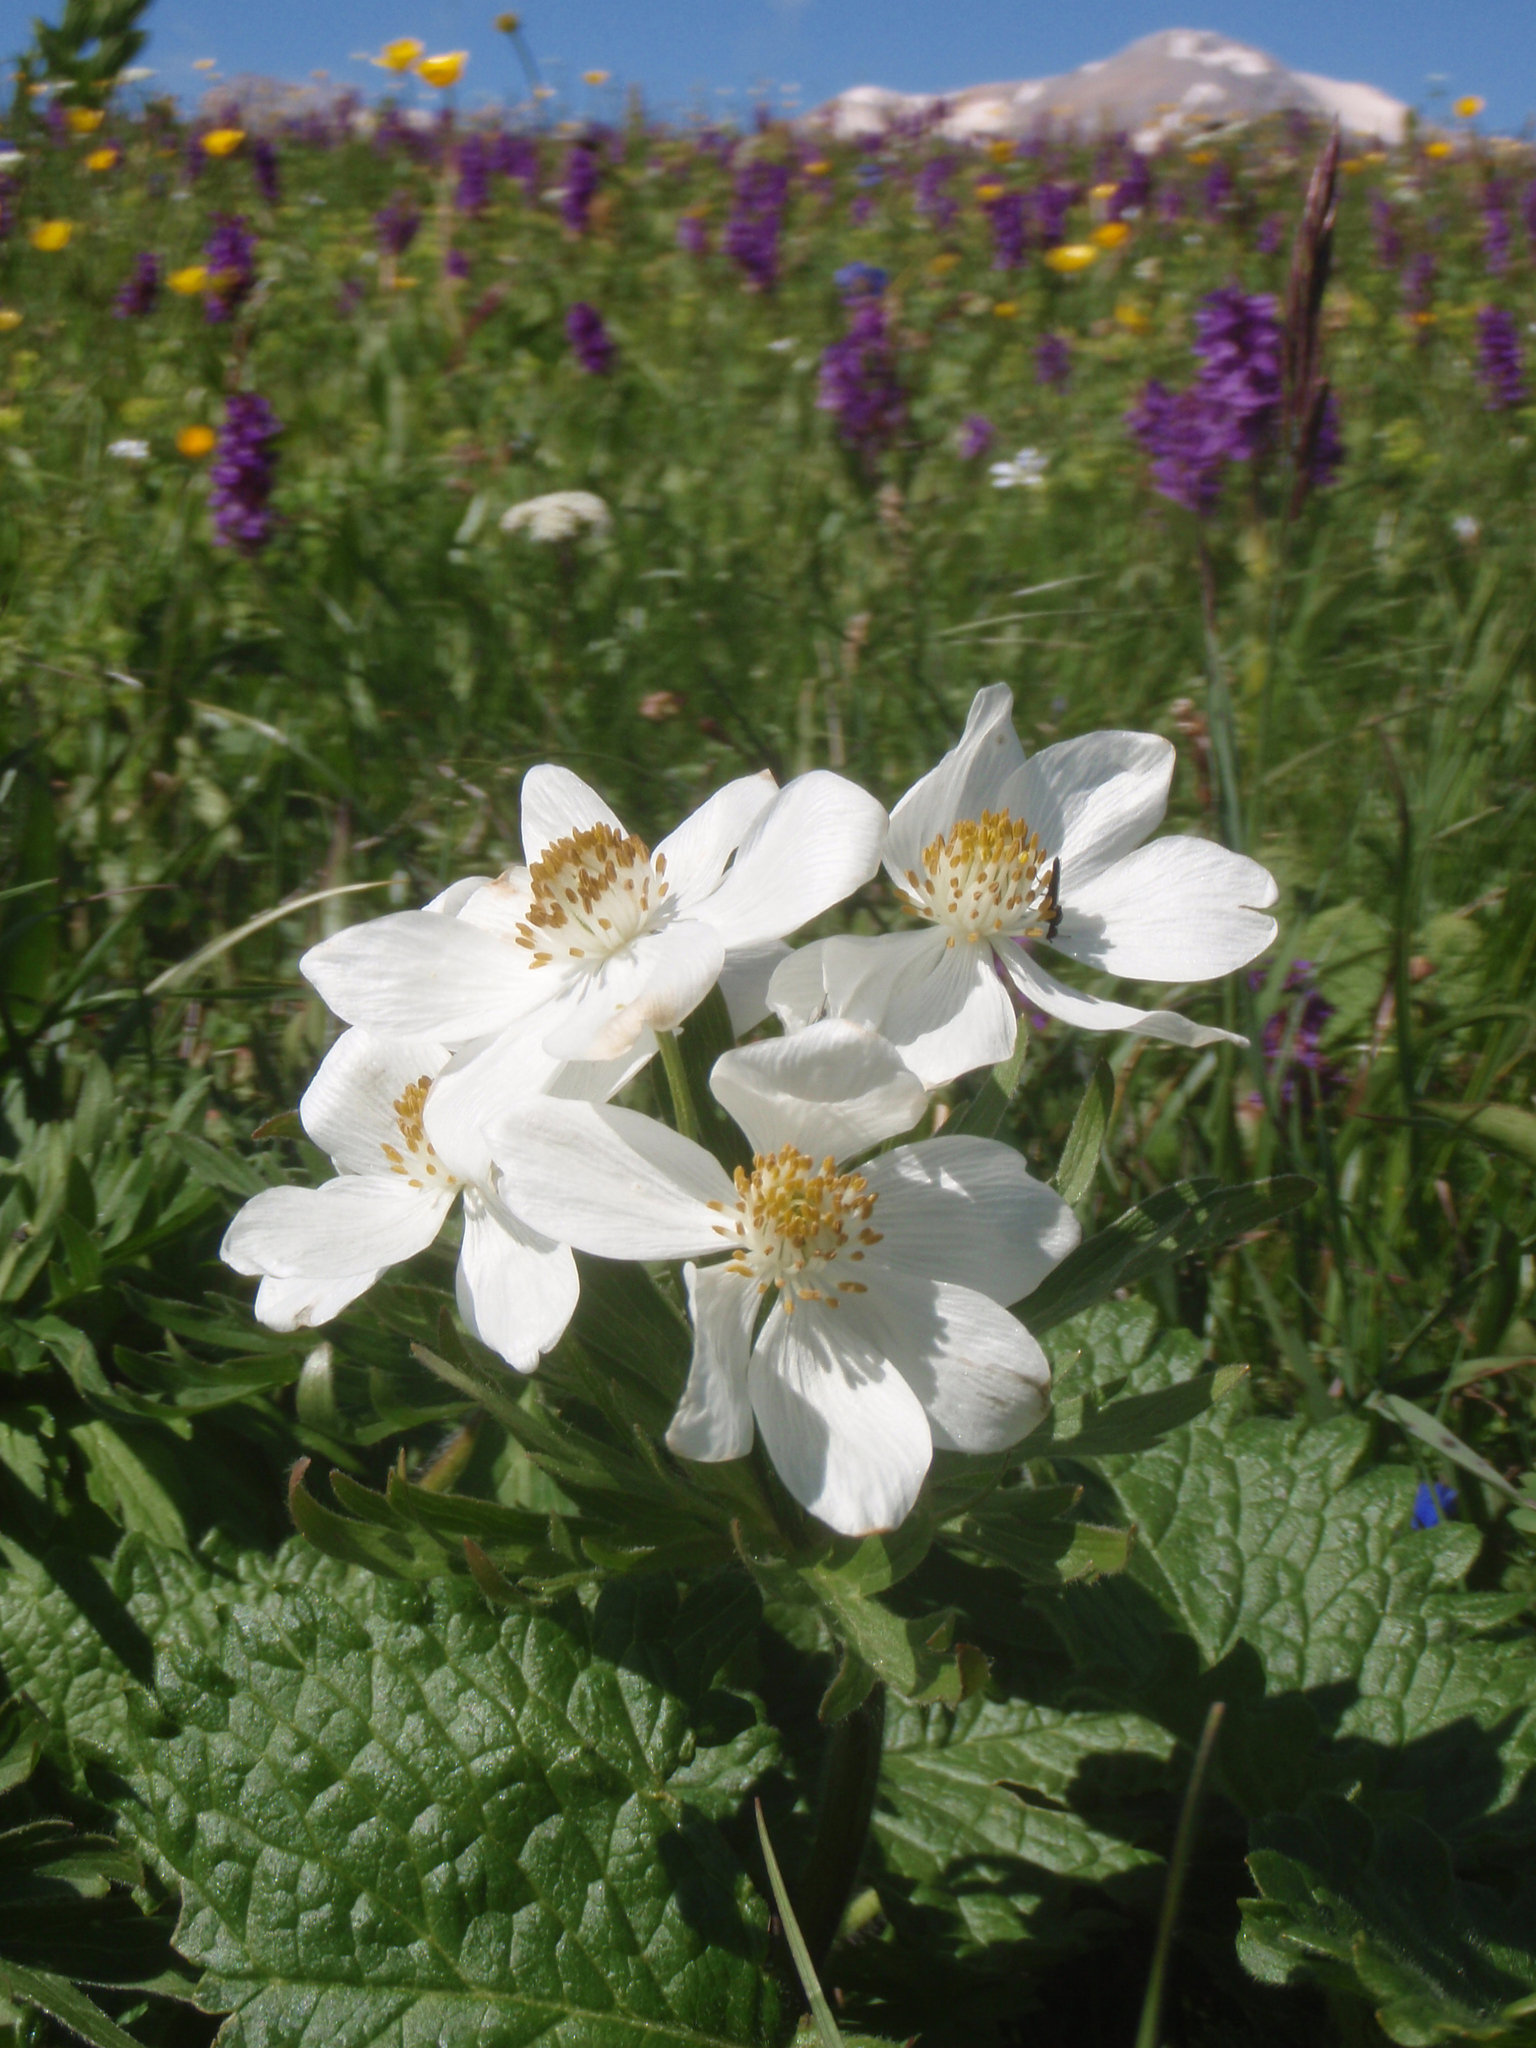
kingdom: Plantae
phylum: Tracheophyta
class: Magnoliopsida
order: Ranunculales
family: Ranunculaceae
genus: Anemonastrum
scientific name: Anemonastrum narcissiflorum
